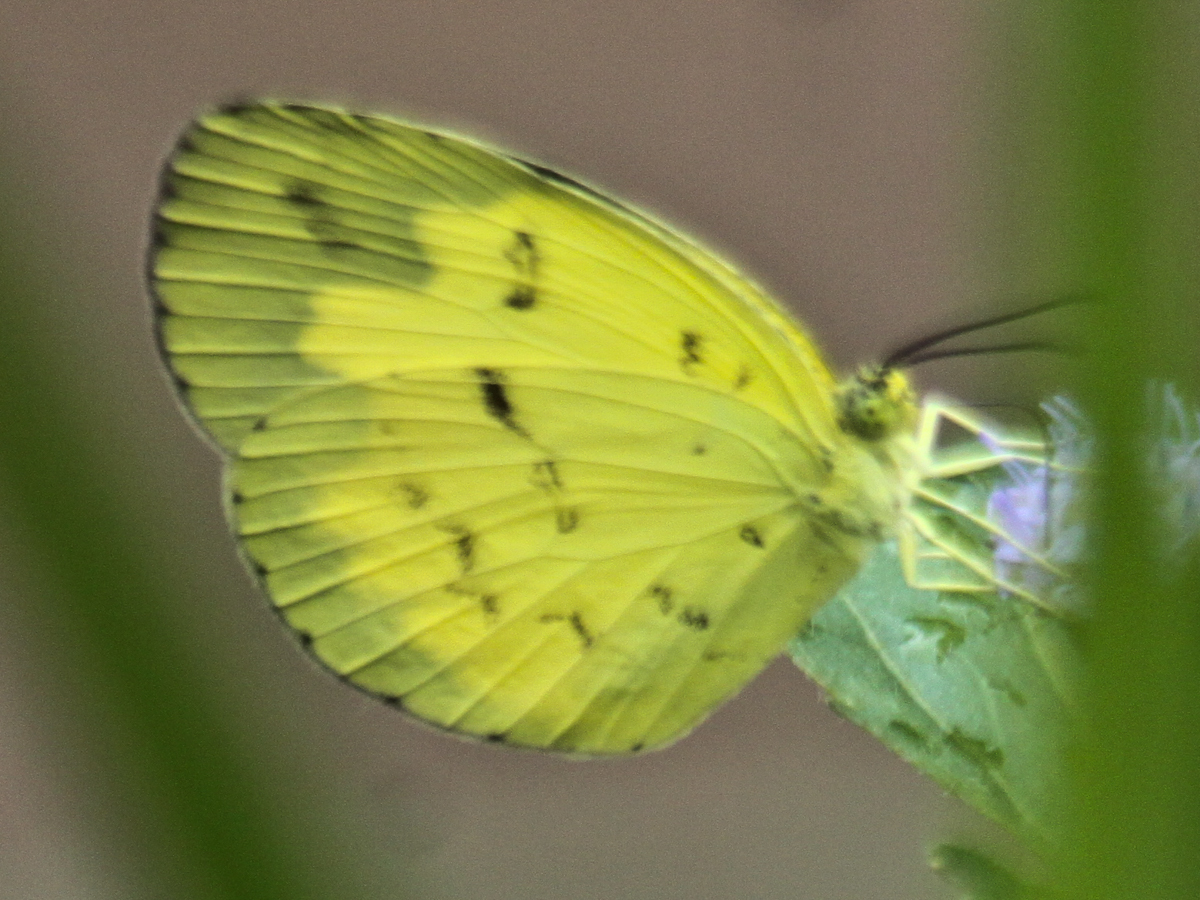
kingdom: Animalia
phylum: Arthropoda
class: Insecta
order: Lepidoptera
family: Pieridae
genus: Eurema
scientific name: Eurema ada
